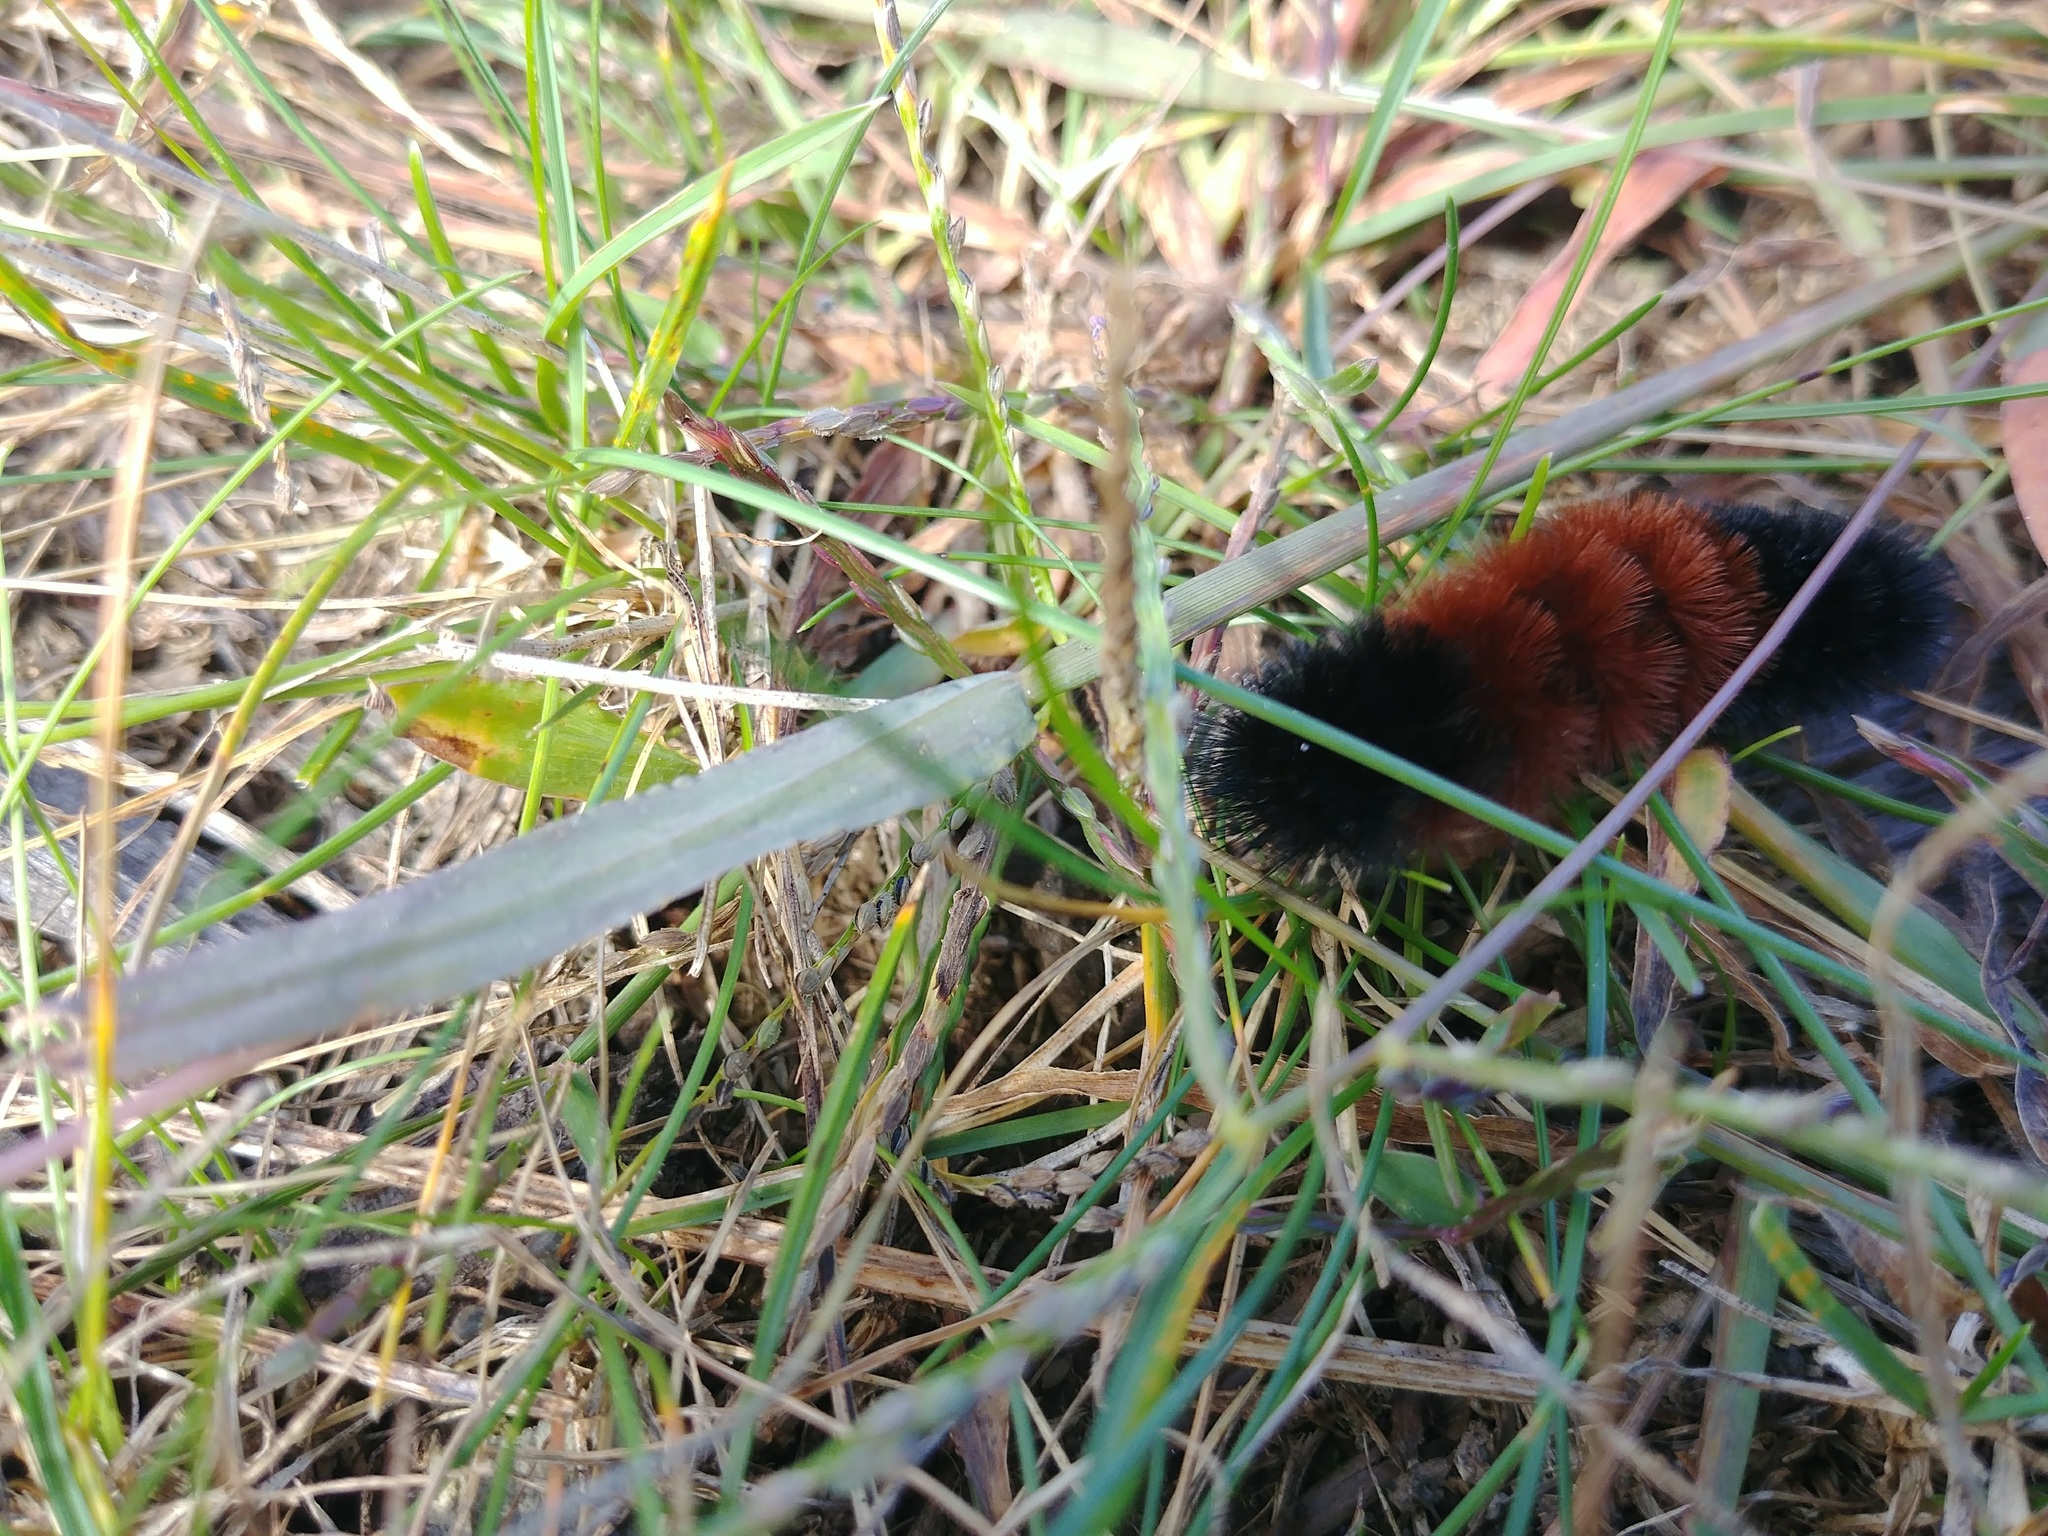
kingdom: Animalia
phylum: Arthropoda
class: Insecta
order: Lepidoptera
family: Erebidae
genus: Pyrrharctia
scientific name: Pyrrharctia isabella
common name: Isabella tiger moth
